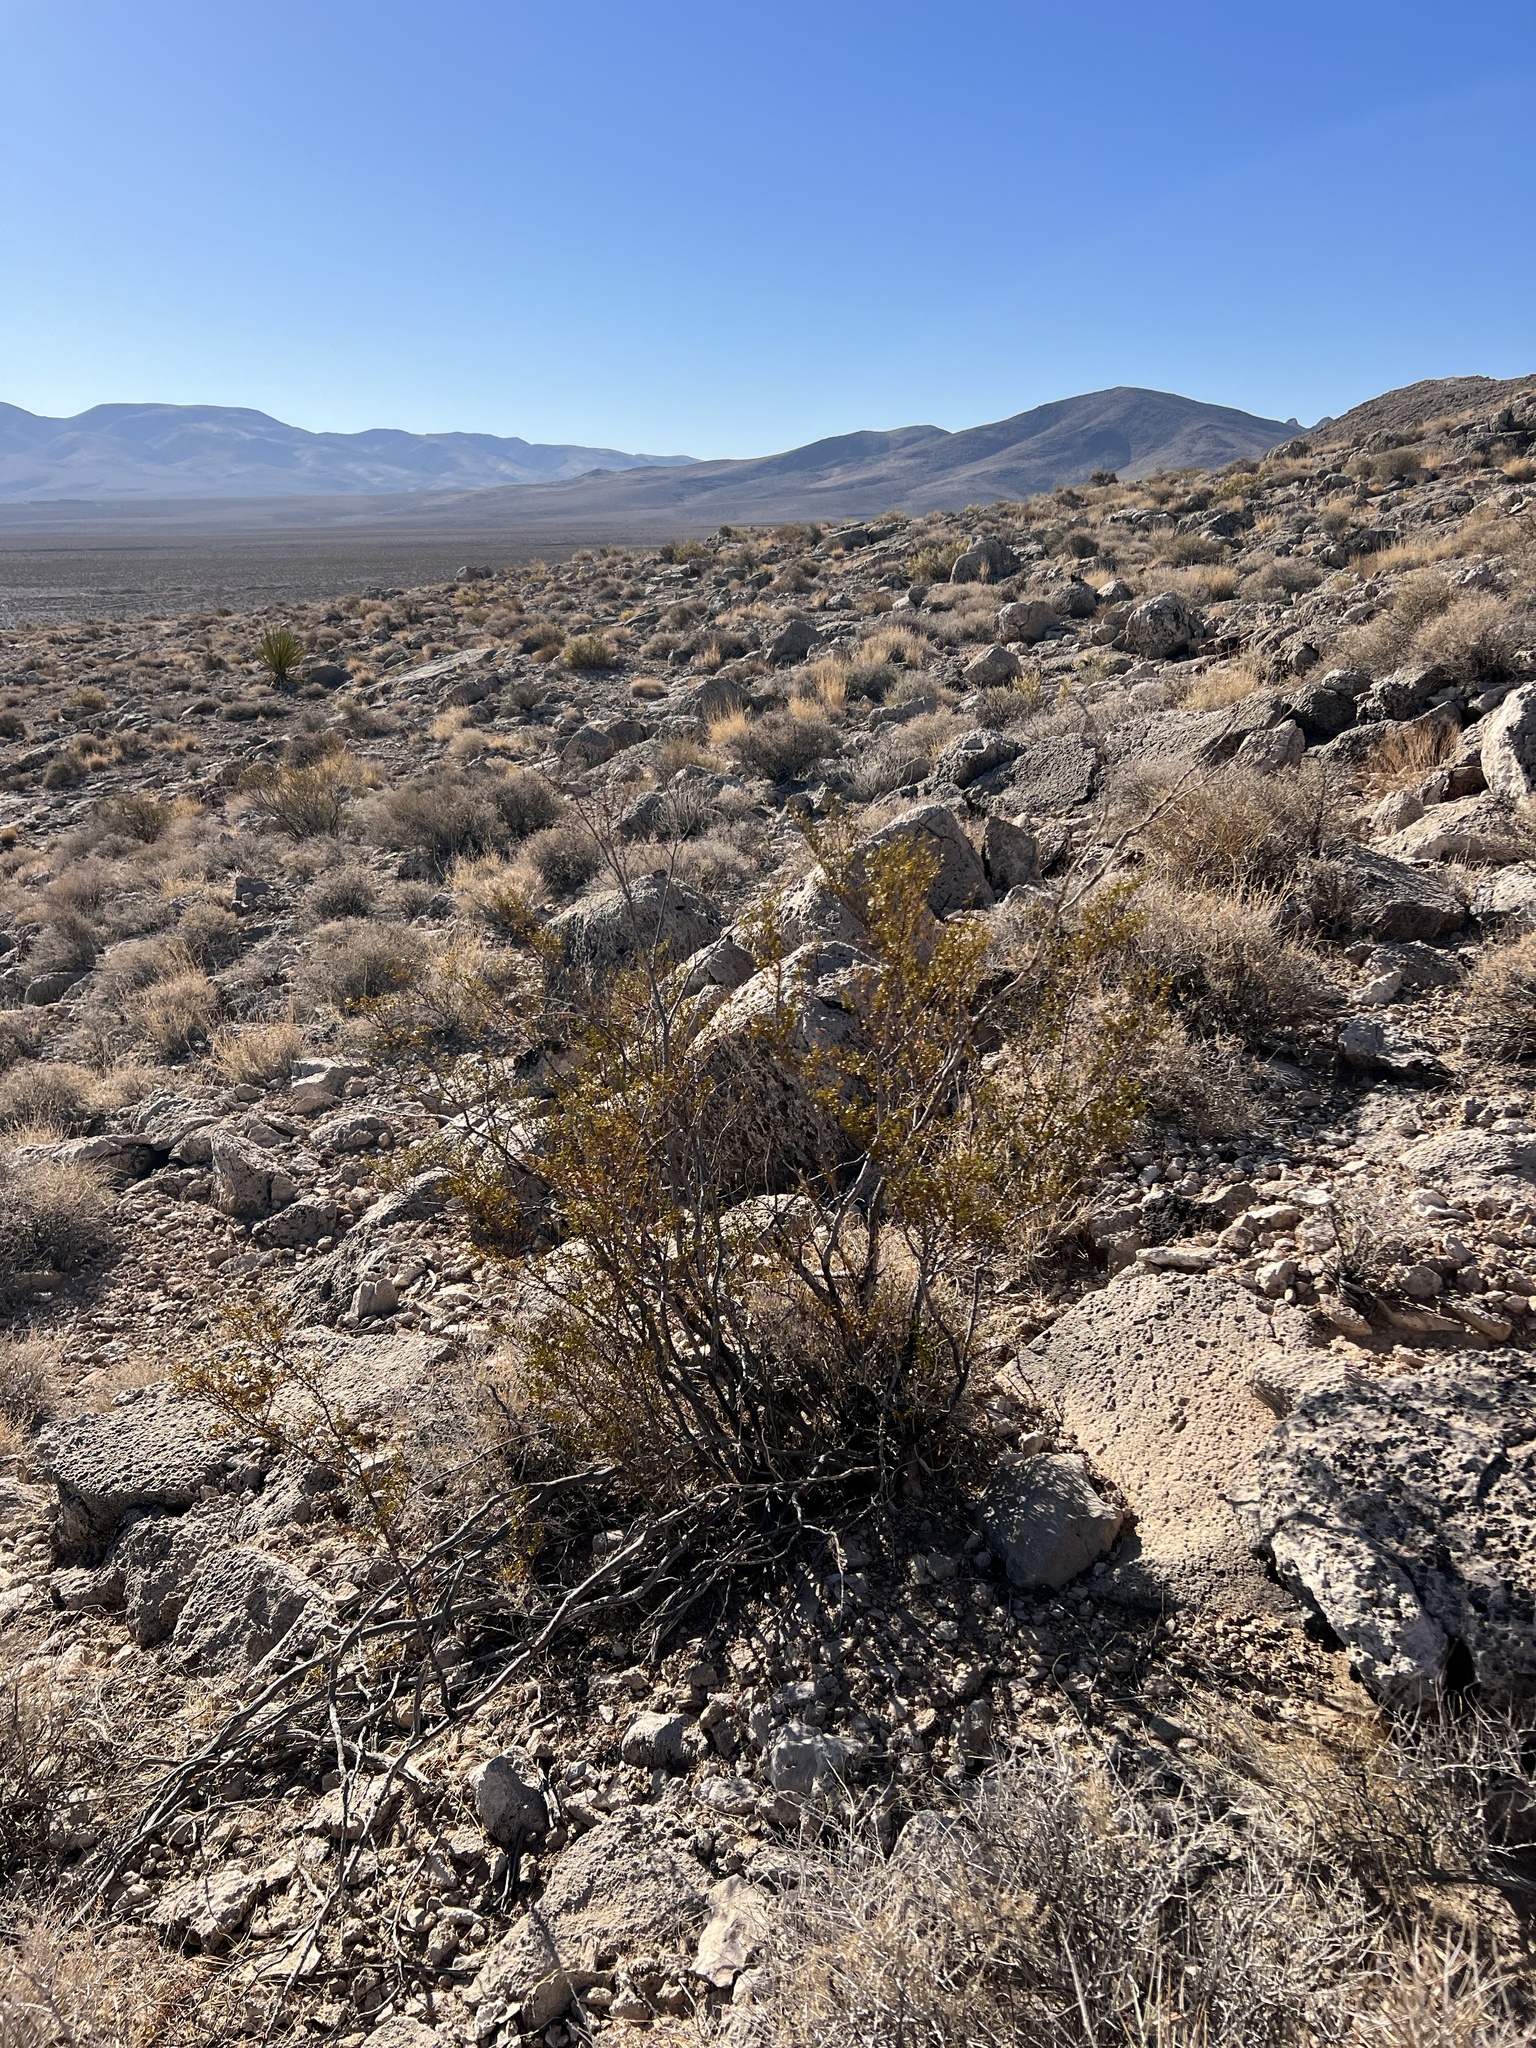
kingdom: Plantae
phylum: Tracheophyta
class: Magnoliopsida
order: Zygophyllales
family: Zygophyllaceae
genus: Larrea
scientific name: Larrea tridentata
